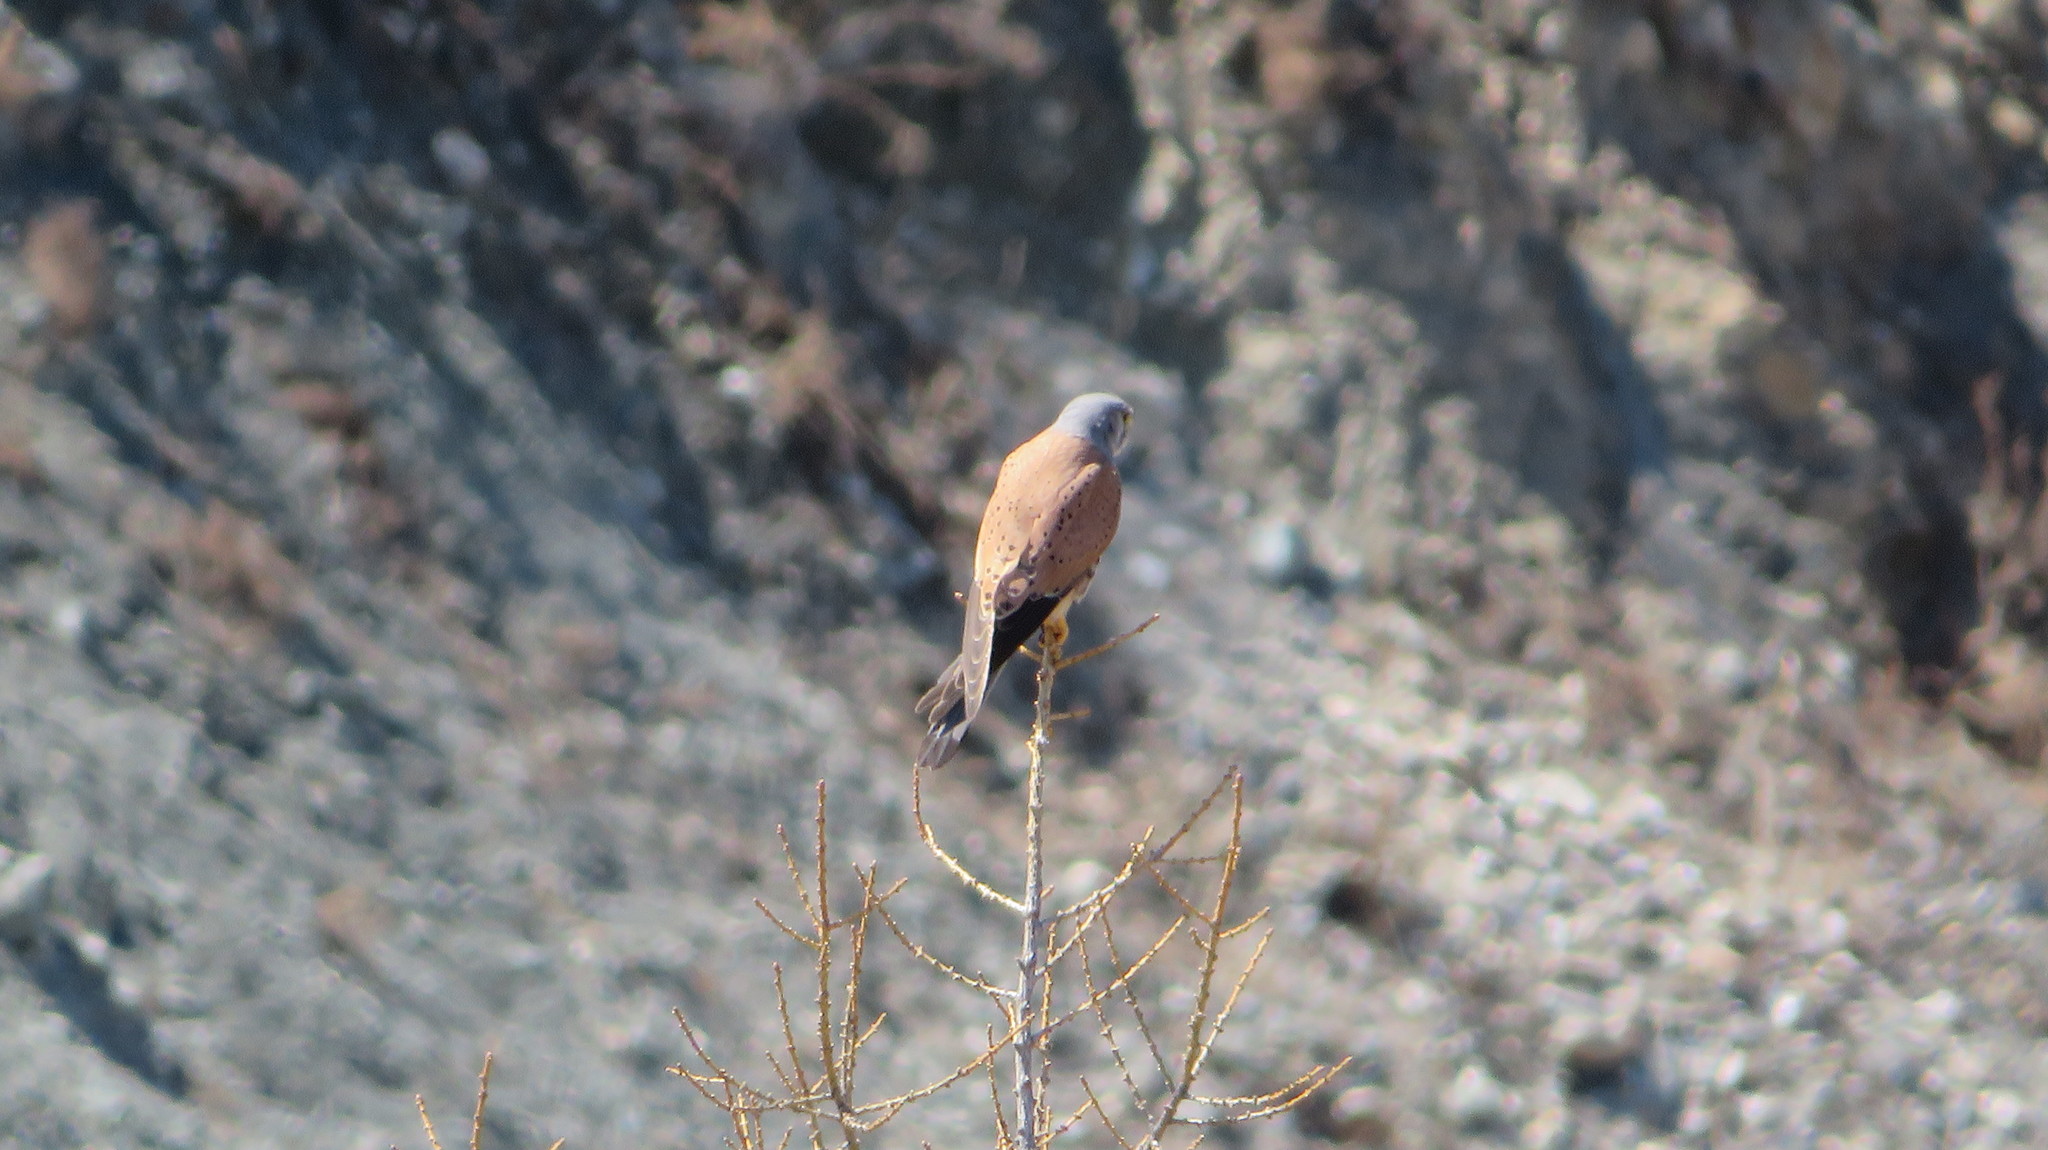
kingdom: Animalia
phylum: Chordata
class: Aves
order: Falconiformes
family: Falconidae
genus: Falco
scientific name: Falco tinnunculus
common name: Common kestrel
